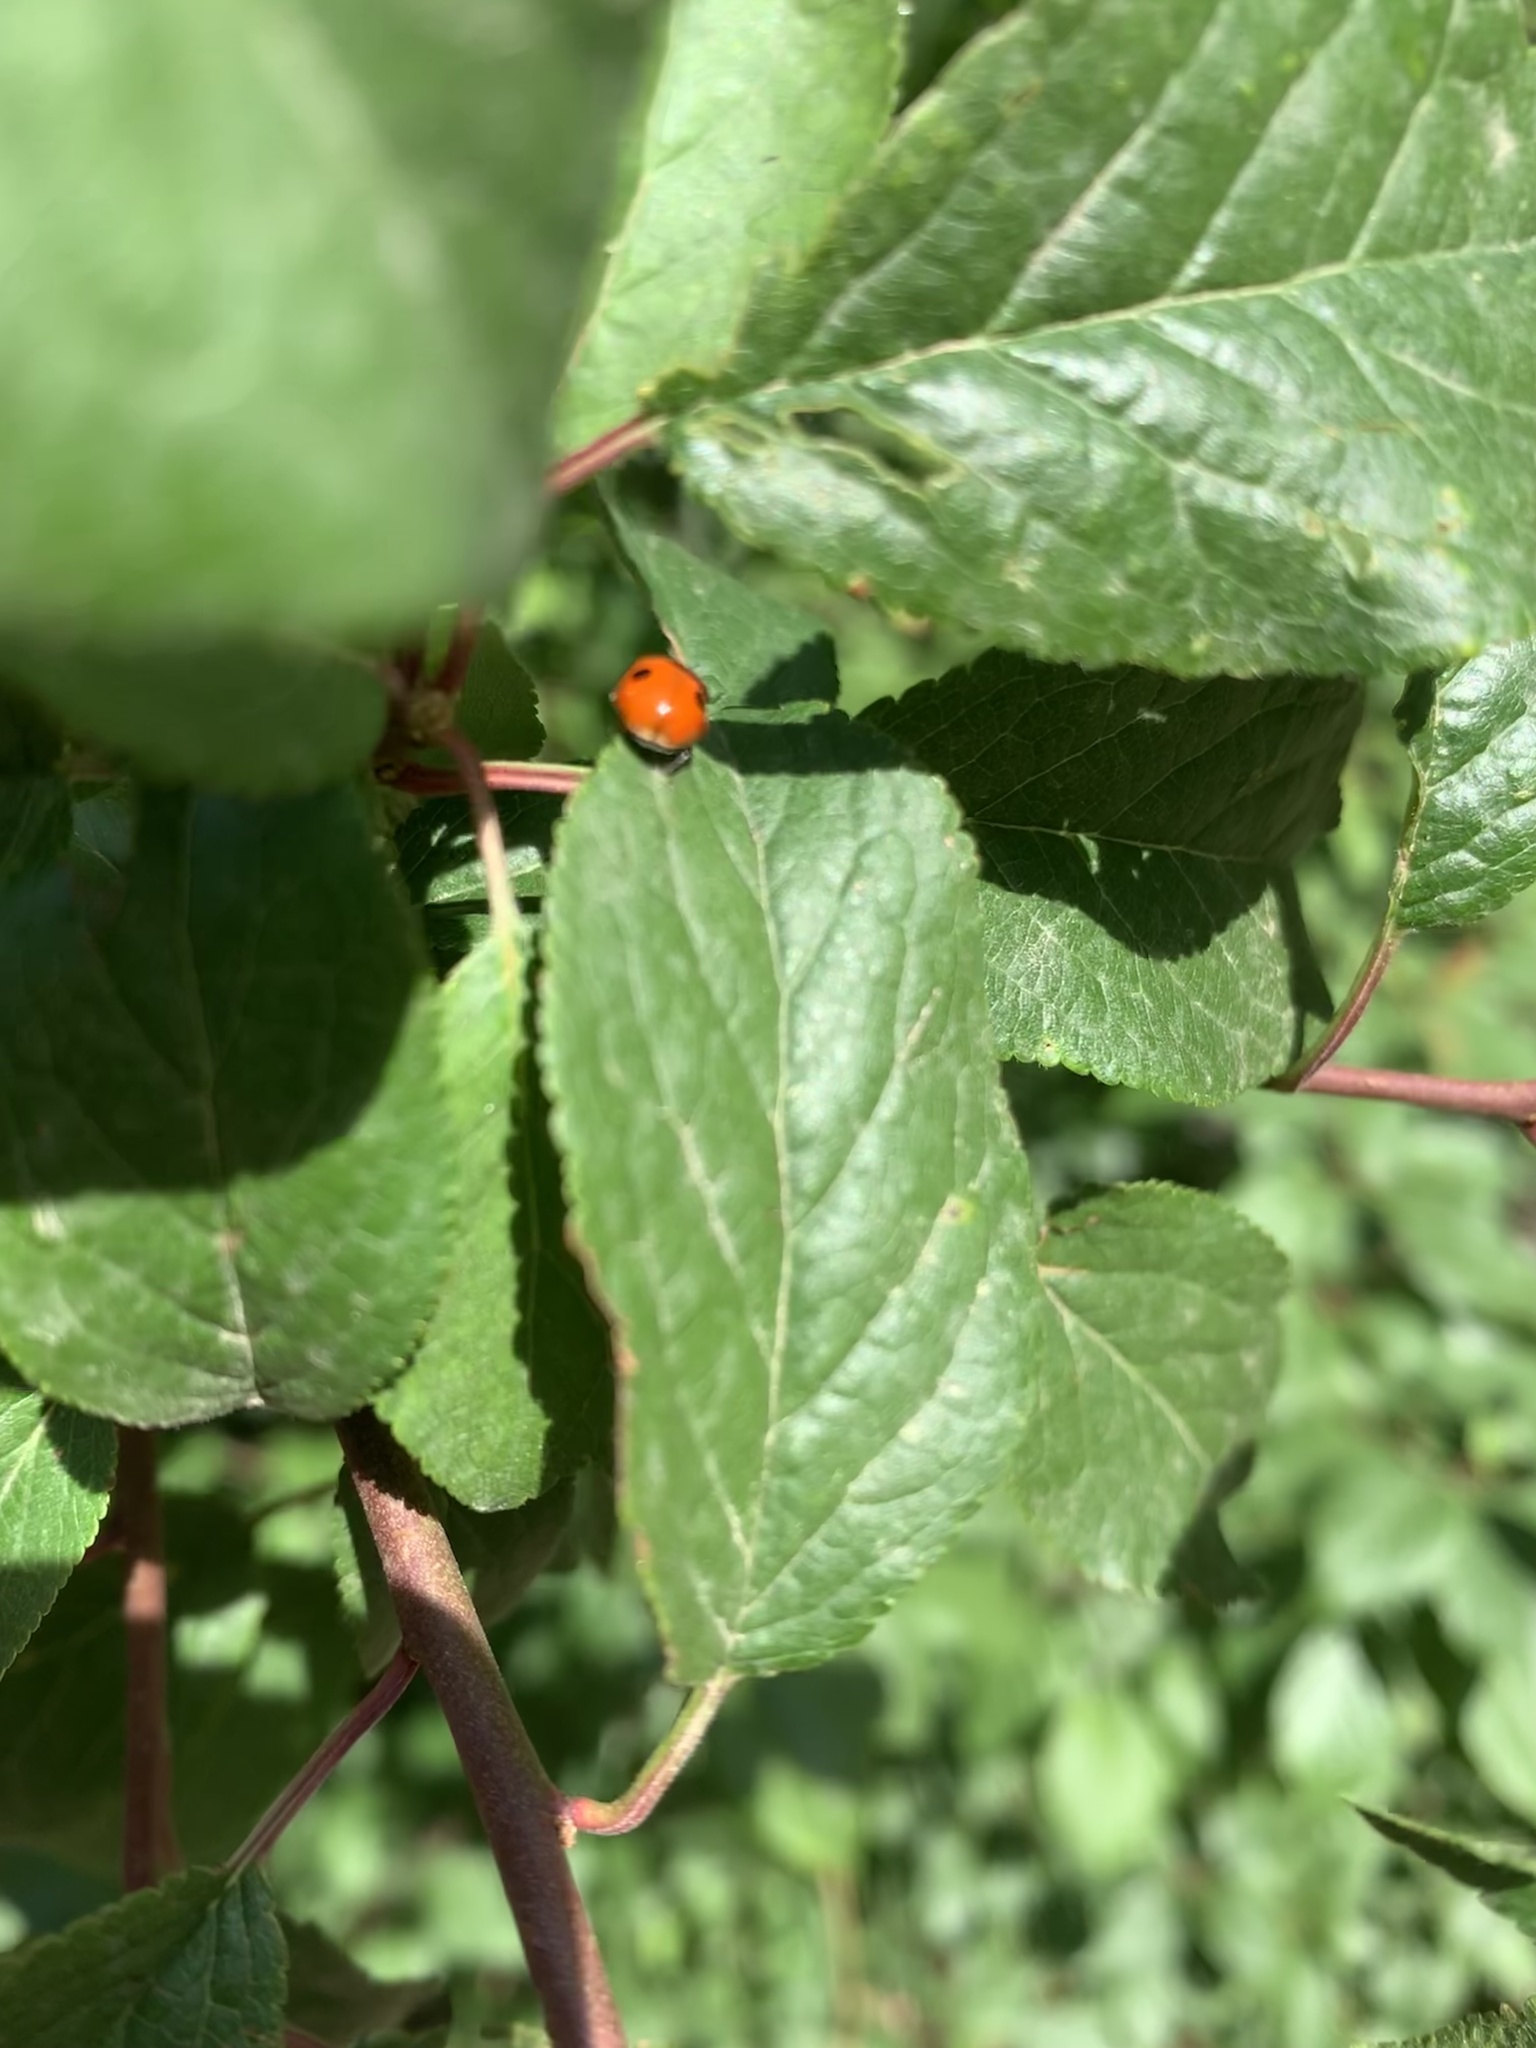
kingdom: Animalia
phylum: Arthropoda
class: Insecta
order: Coleoptera
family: Coccinellidae
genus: Adalia
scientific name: Adalia bipunctata
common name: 2-spot ladybird
